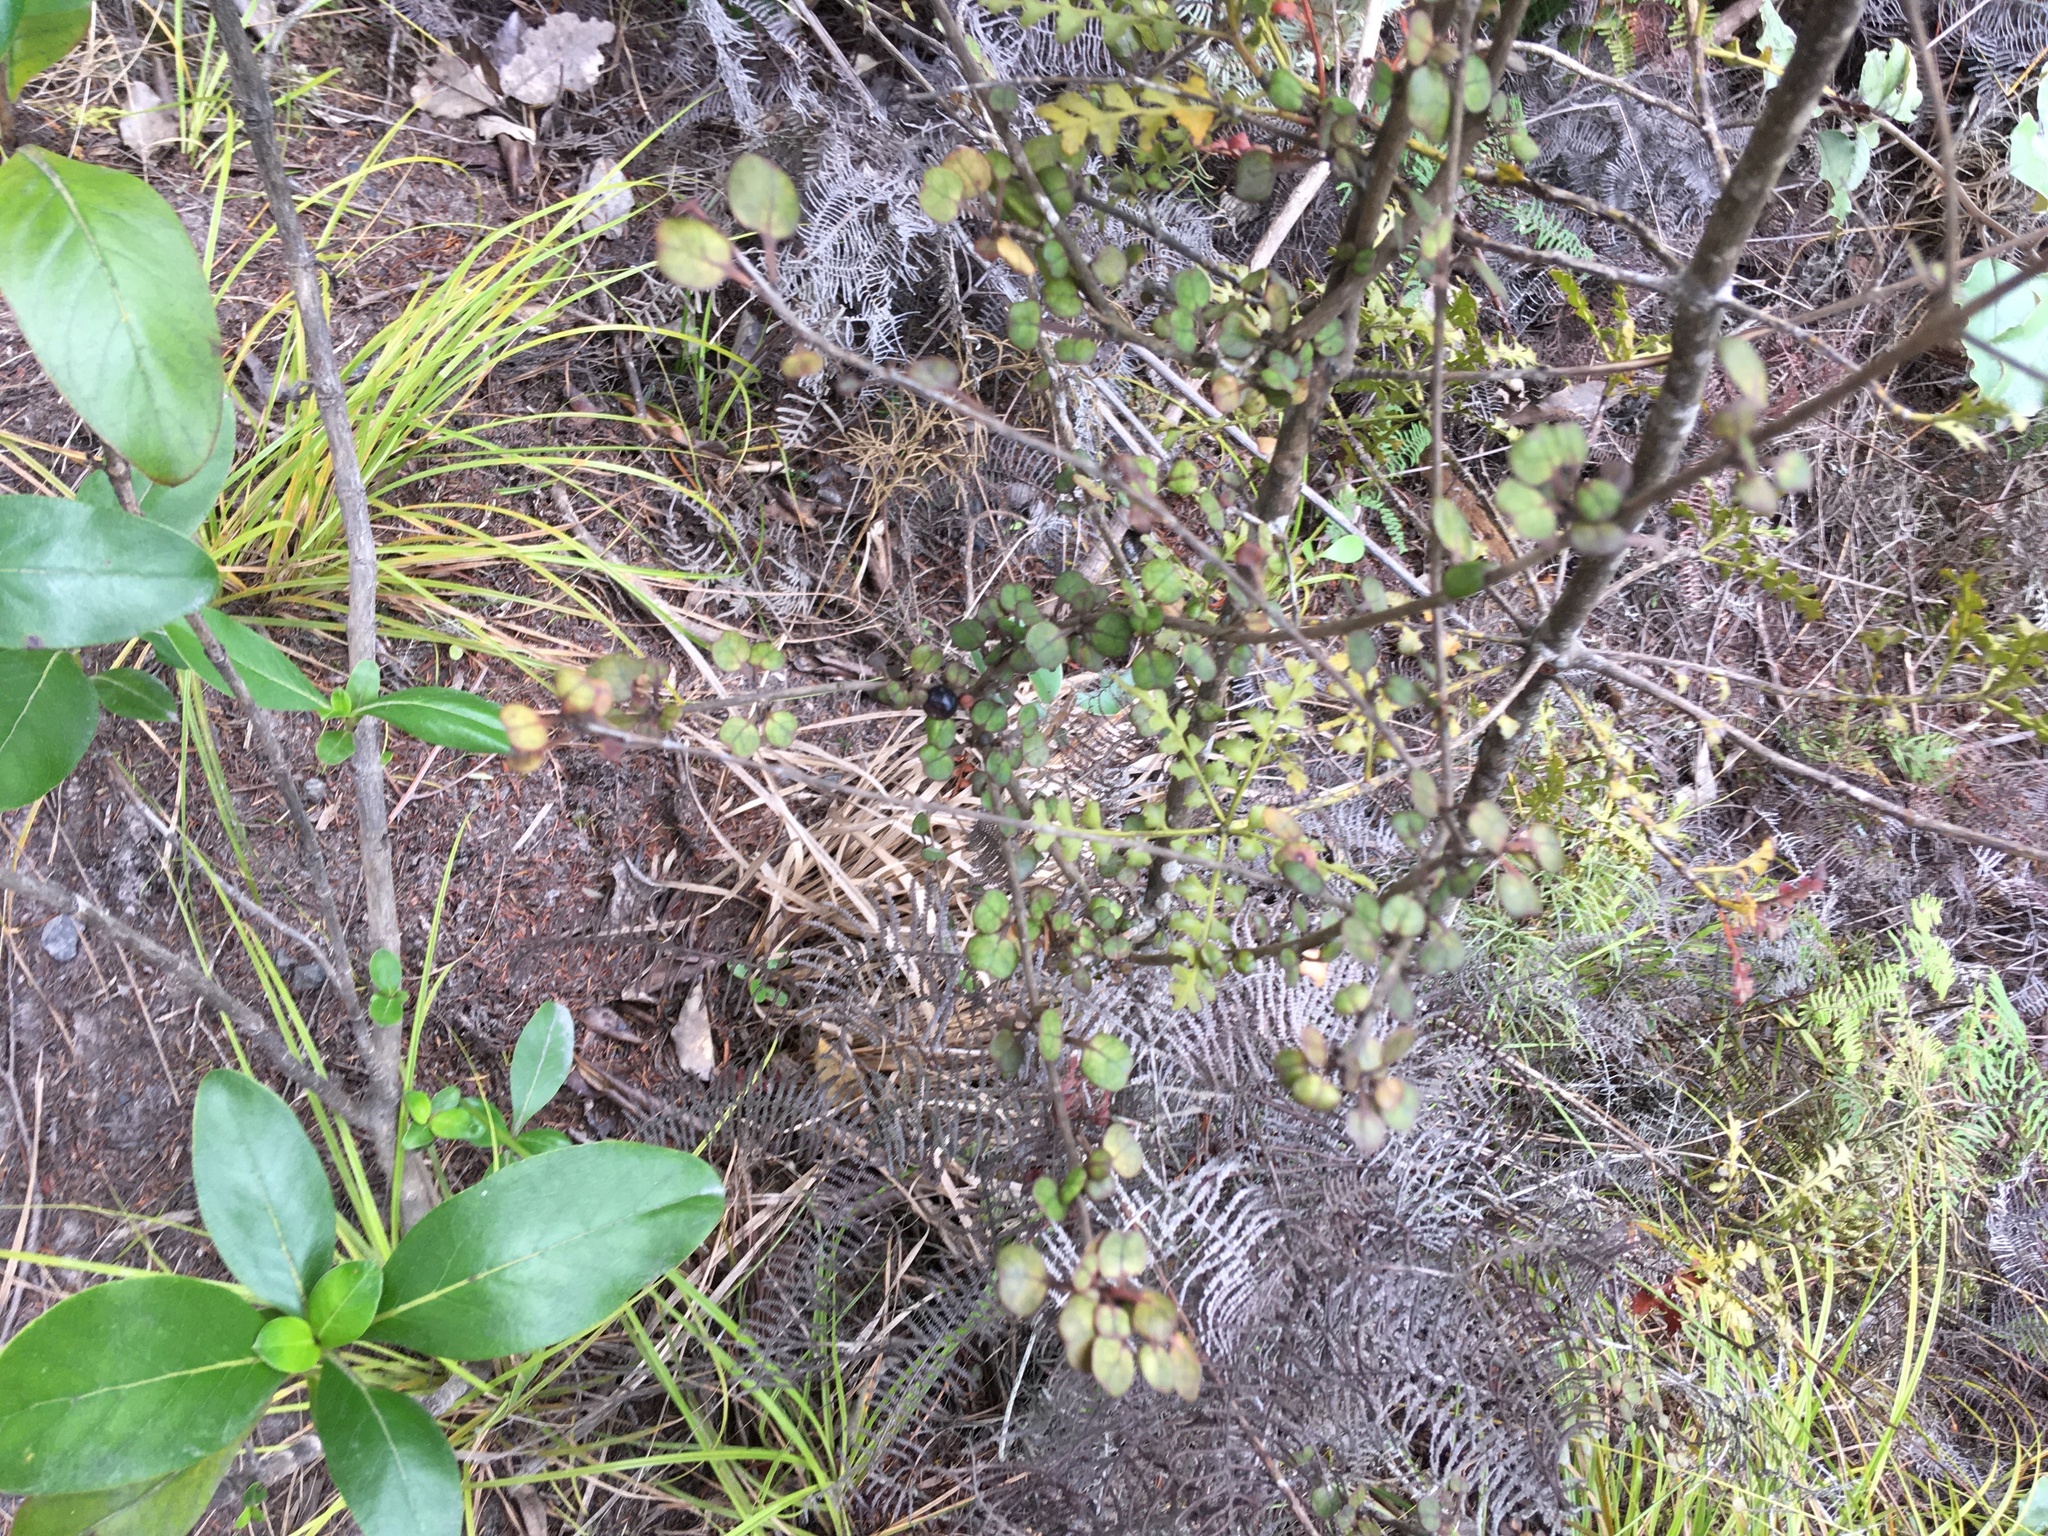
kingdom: Plantae
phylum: Tracheophyta
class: Magnoliopsida
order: Gentianales
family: Rubiaceae
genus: Coprosma
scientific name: Coprosma spathulata
